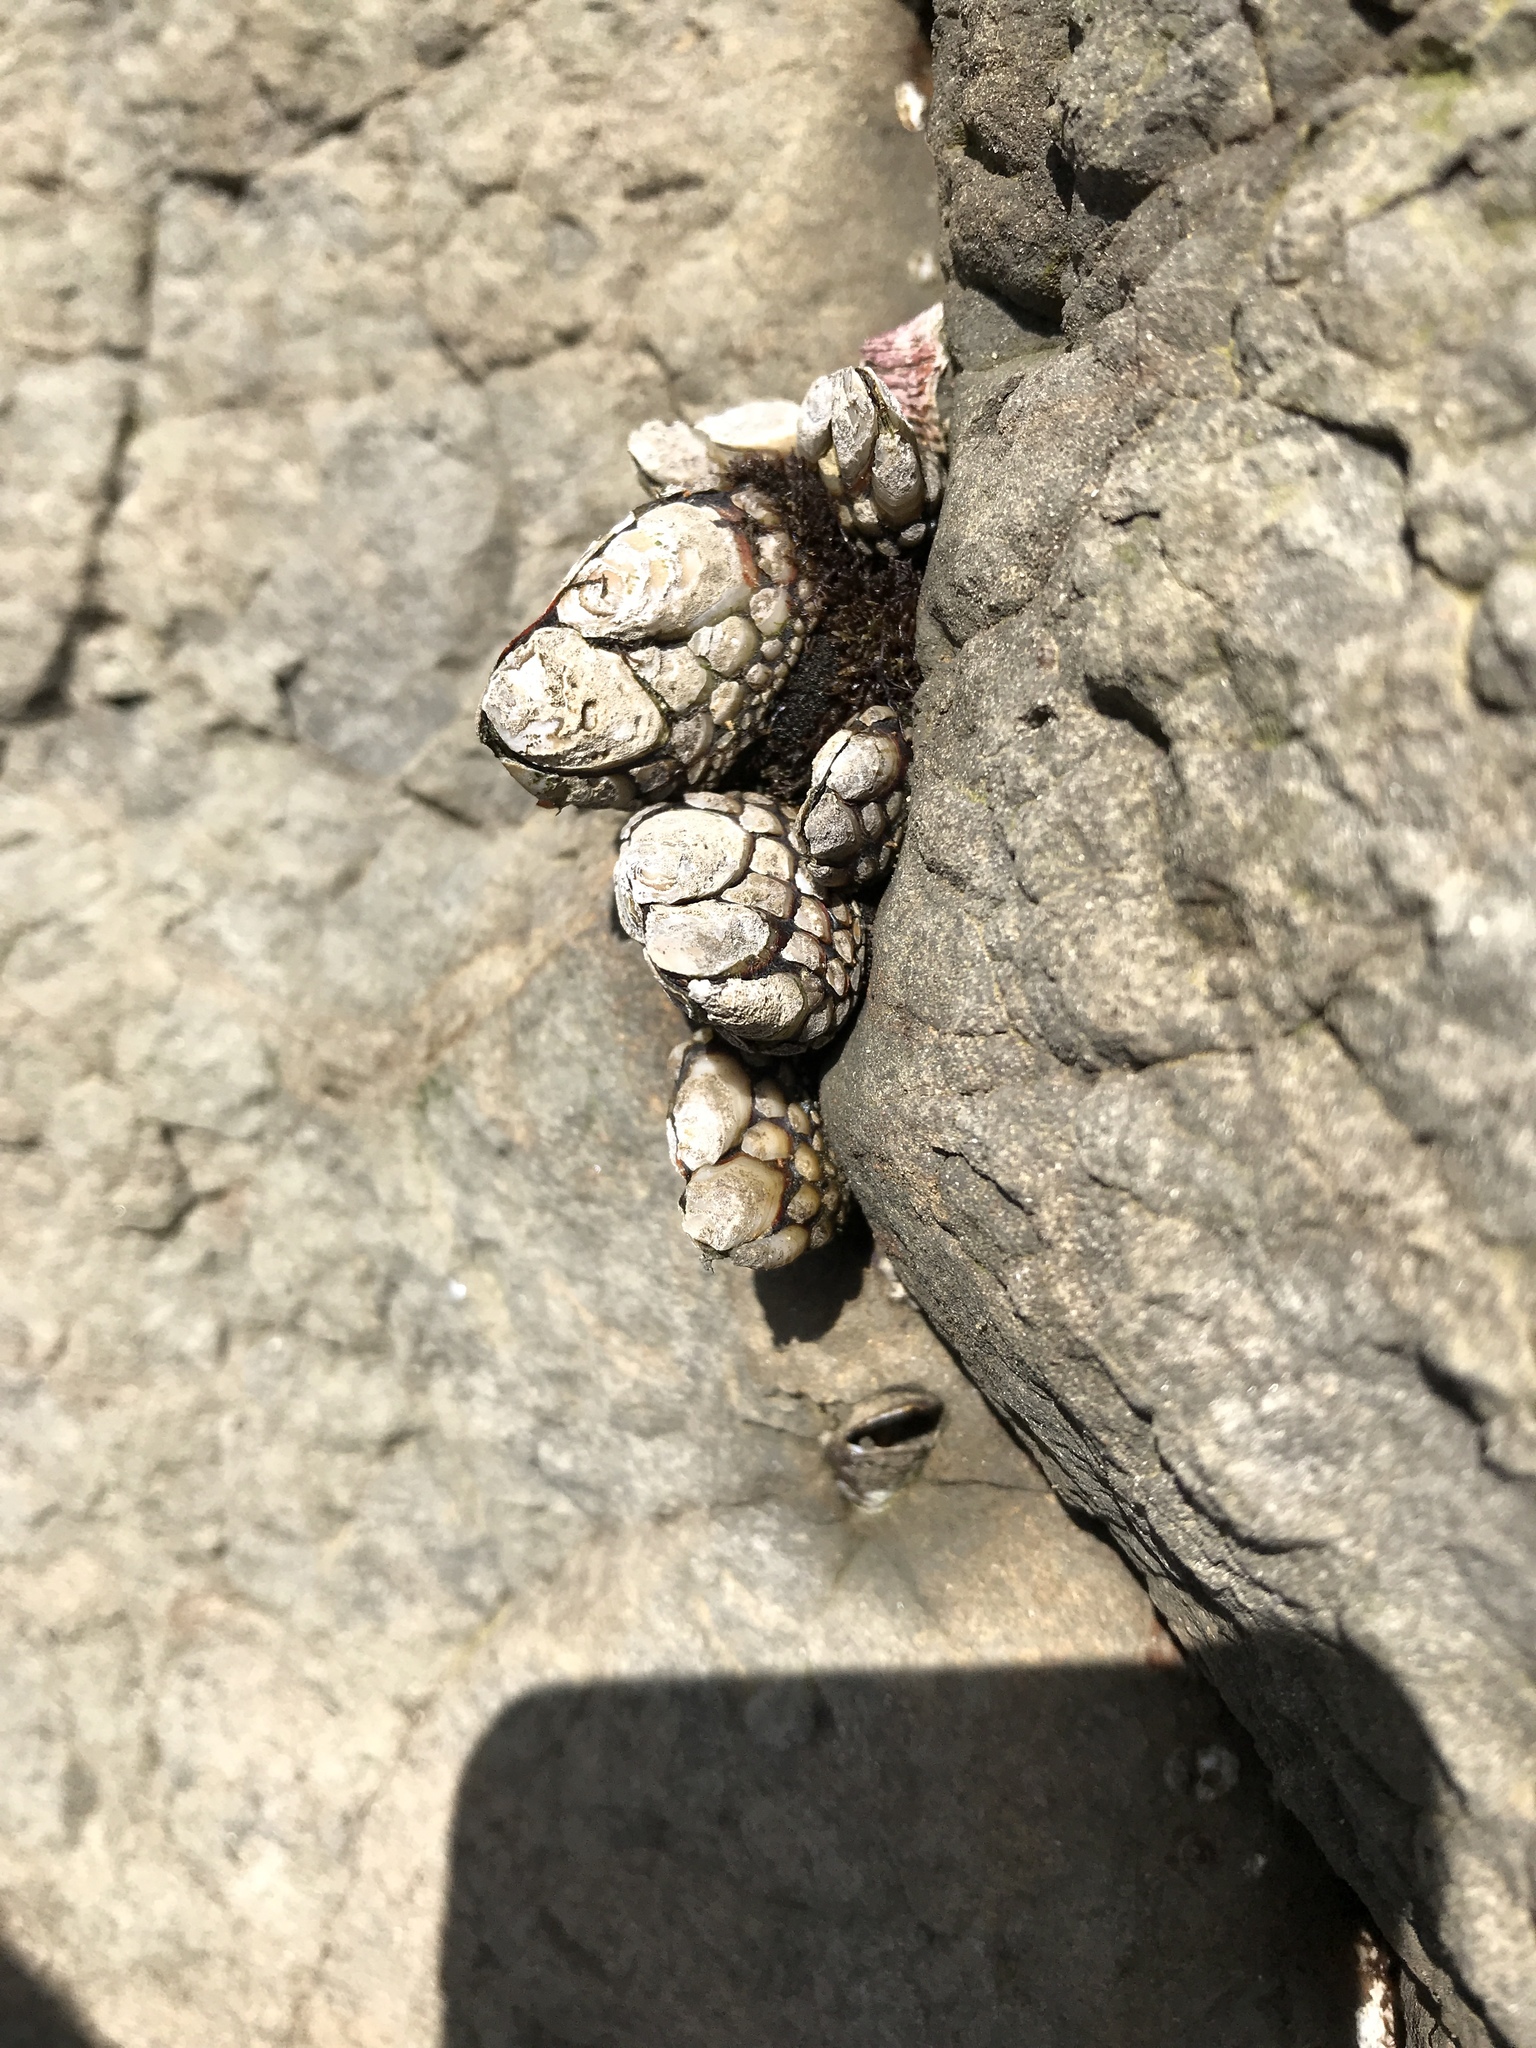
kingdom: Animalia
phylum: Arthropoda
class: Maxillopoda
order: Pedunculata
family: Pollicipedidae
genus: Pollicipes
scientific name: Pollicipes polymerus
